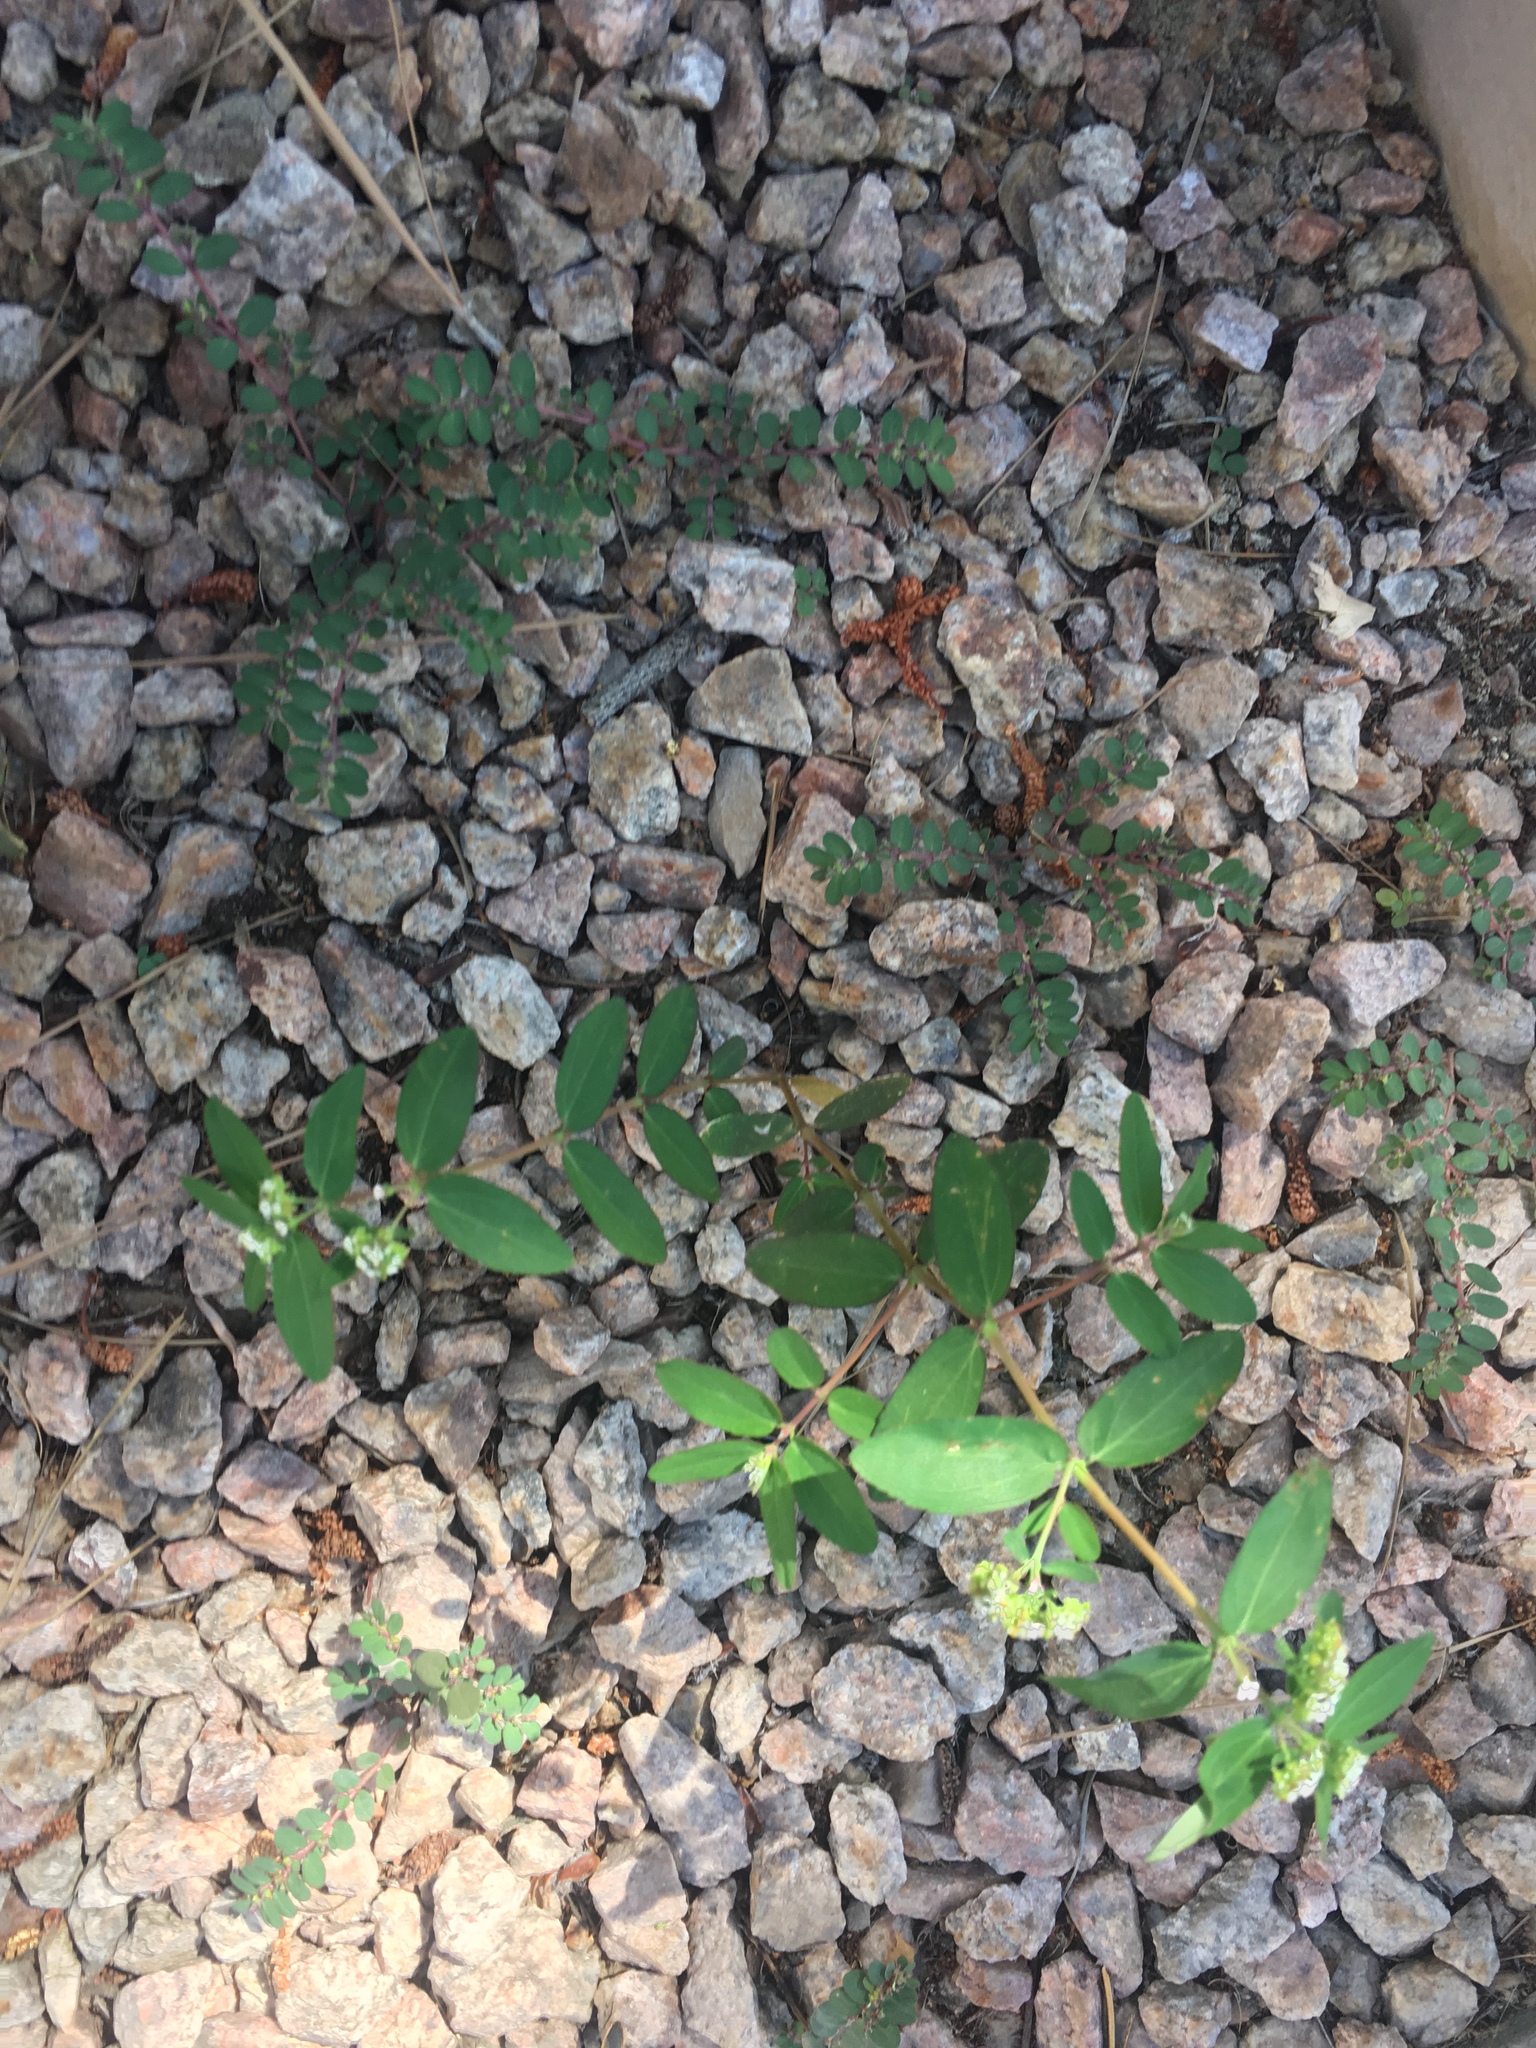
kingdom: Plantae
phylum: Tracheophyta
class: Magnoliopsida
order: Malpighiales
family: Euphorbiaceae
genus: Euphorbia
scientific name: Euphorbia hypericifolia
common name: Graceful sandmat
